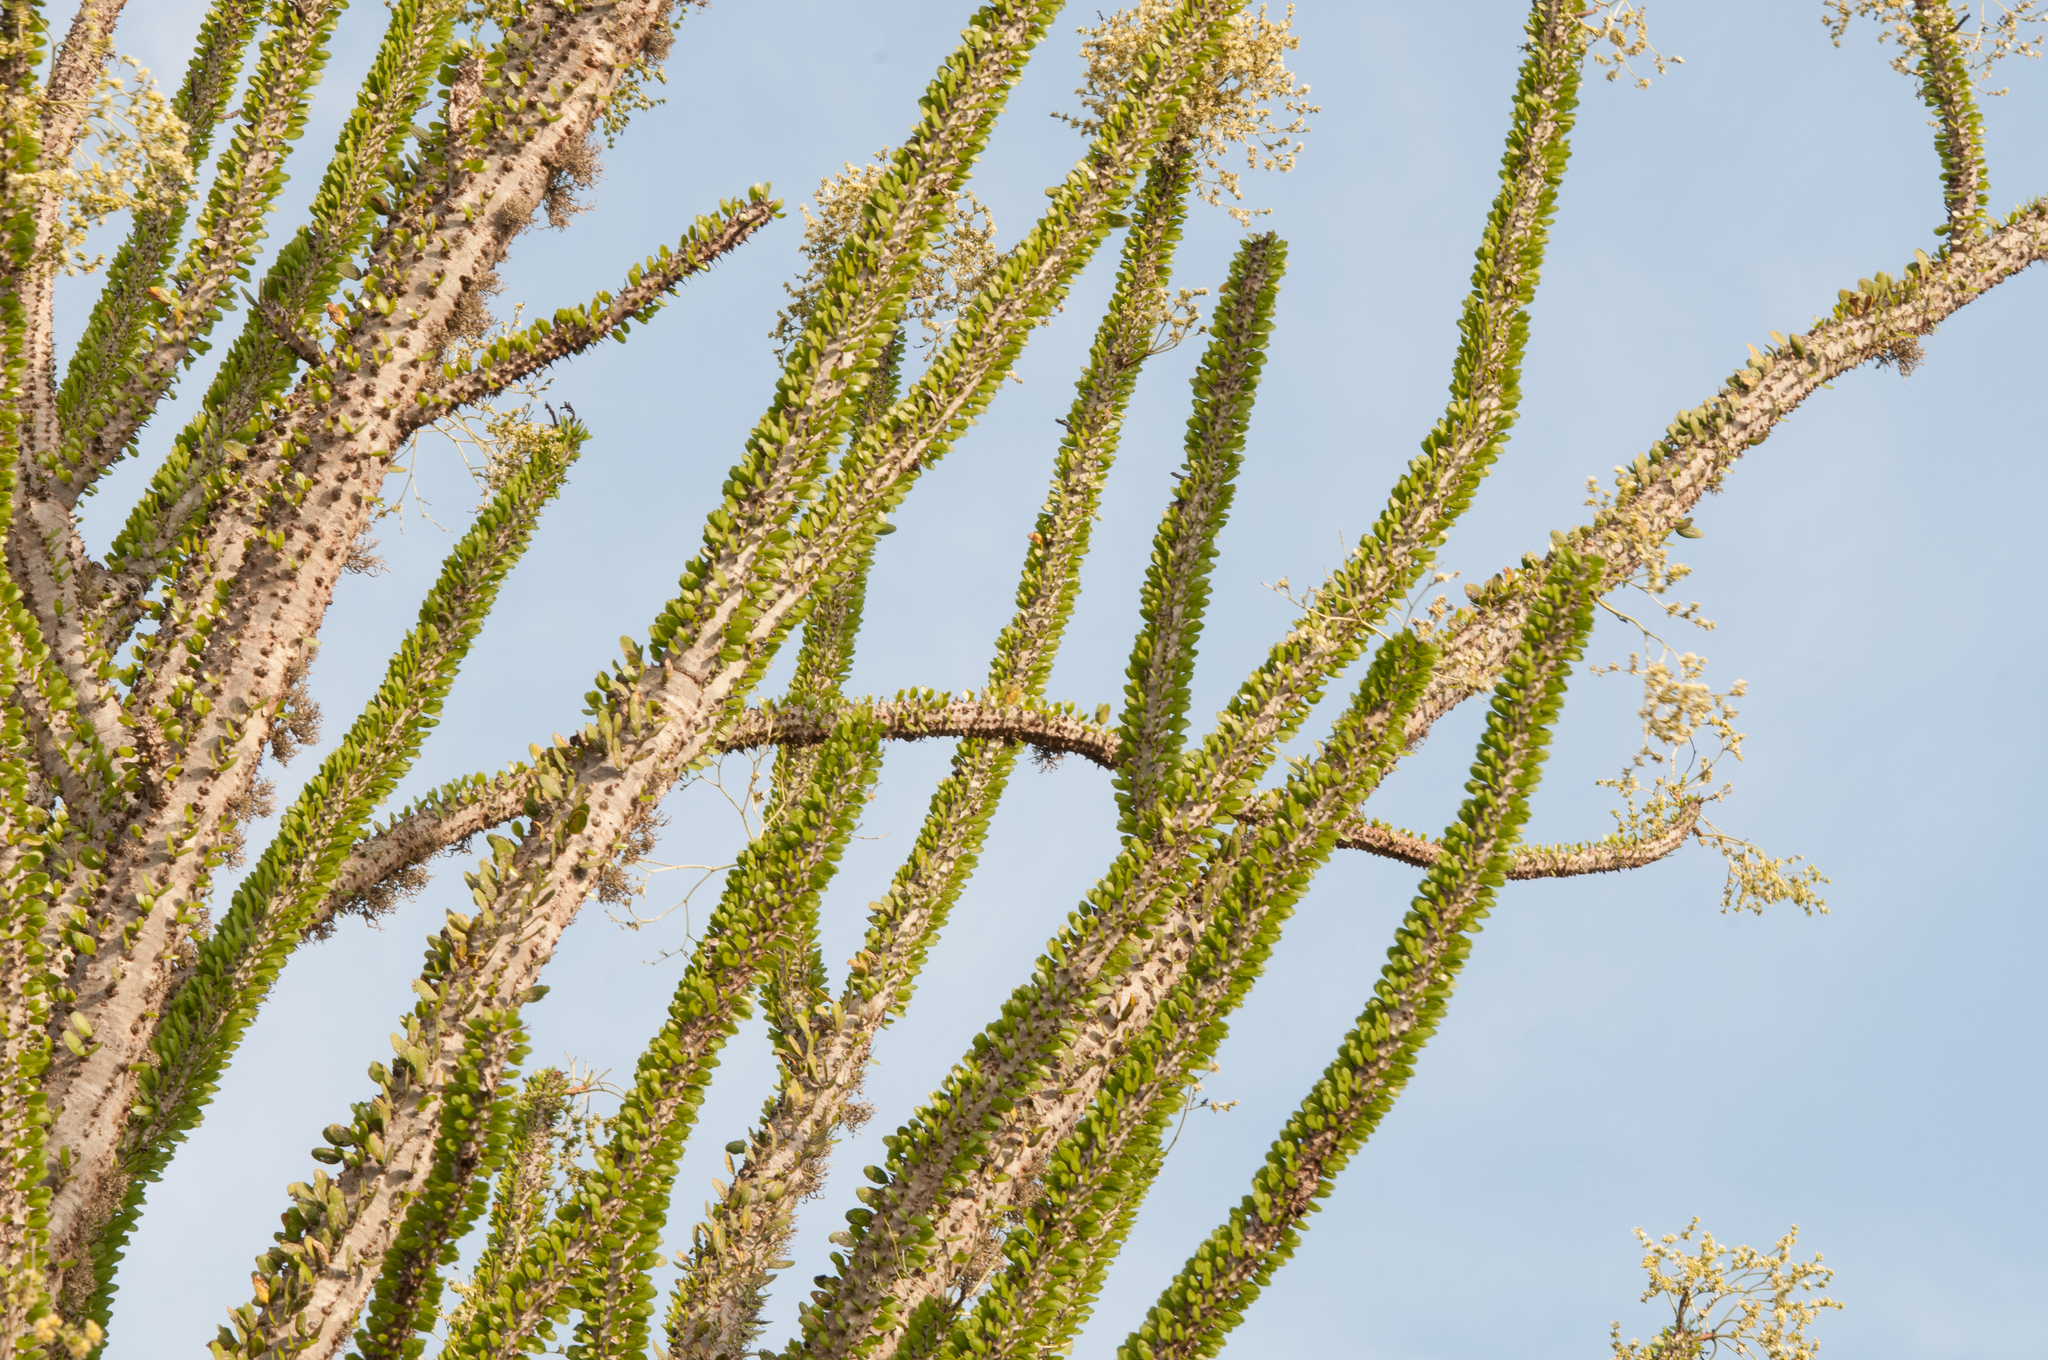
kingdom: Plantae
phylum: Tracheophyta
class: Magnoliopsida
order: Caryophyllales
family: Didiereaceae
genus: Alluaudia
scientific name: Alluaudia procera
